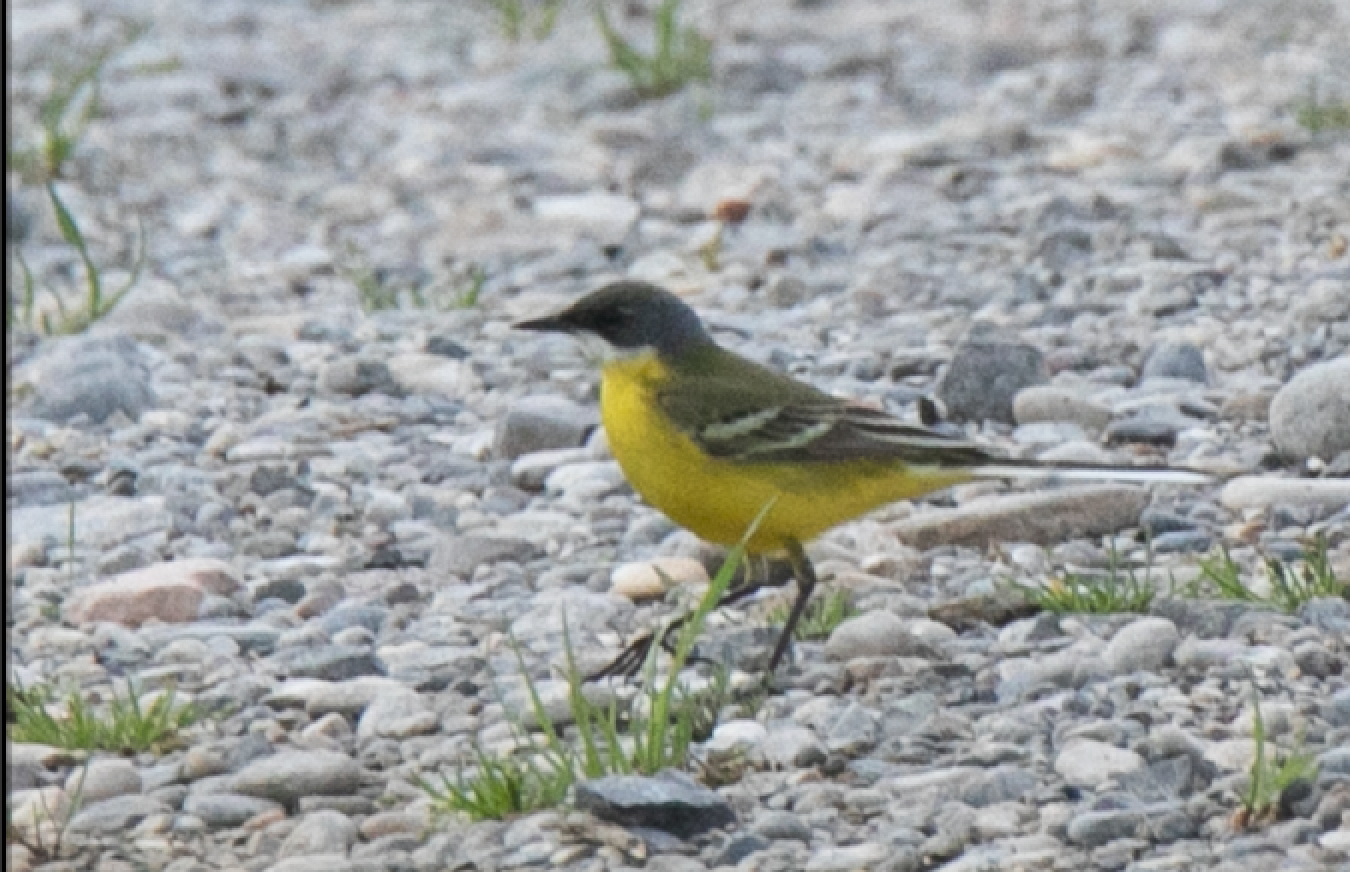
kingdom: Animalia
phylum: Chordata
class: Aves
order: Passeriformes
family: Motacillidae
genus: Motacilla
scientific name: Motacilla flava
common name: Western yellow wagtail
